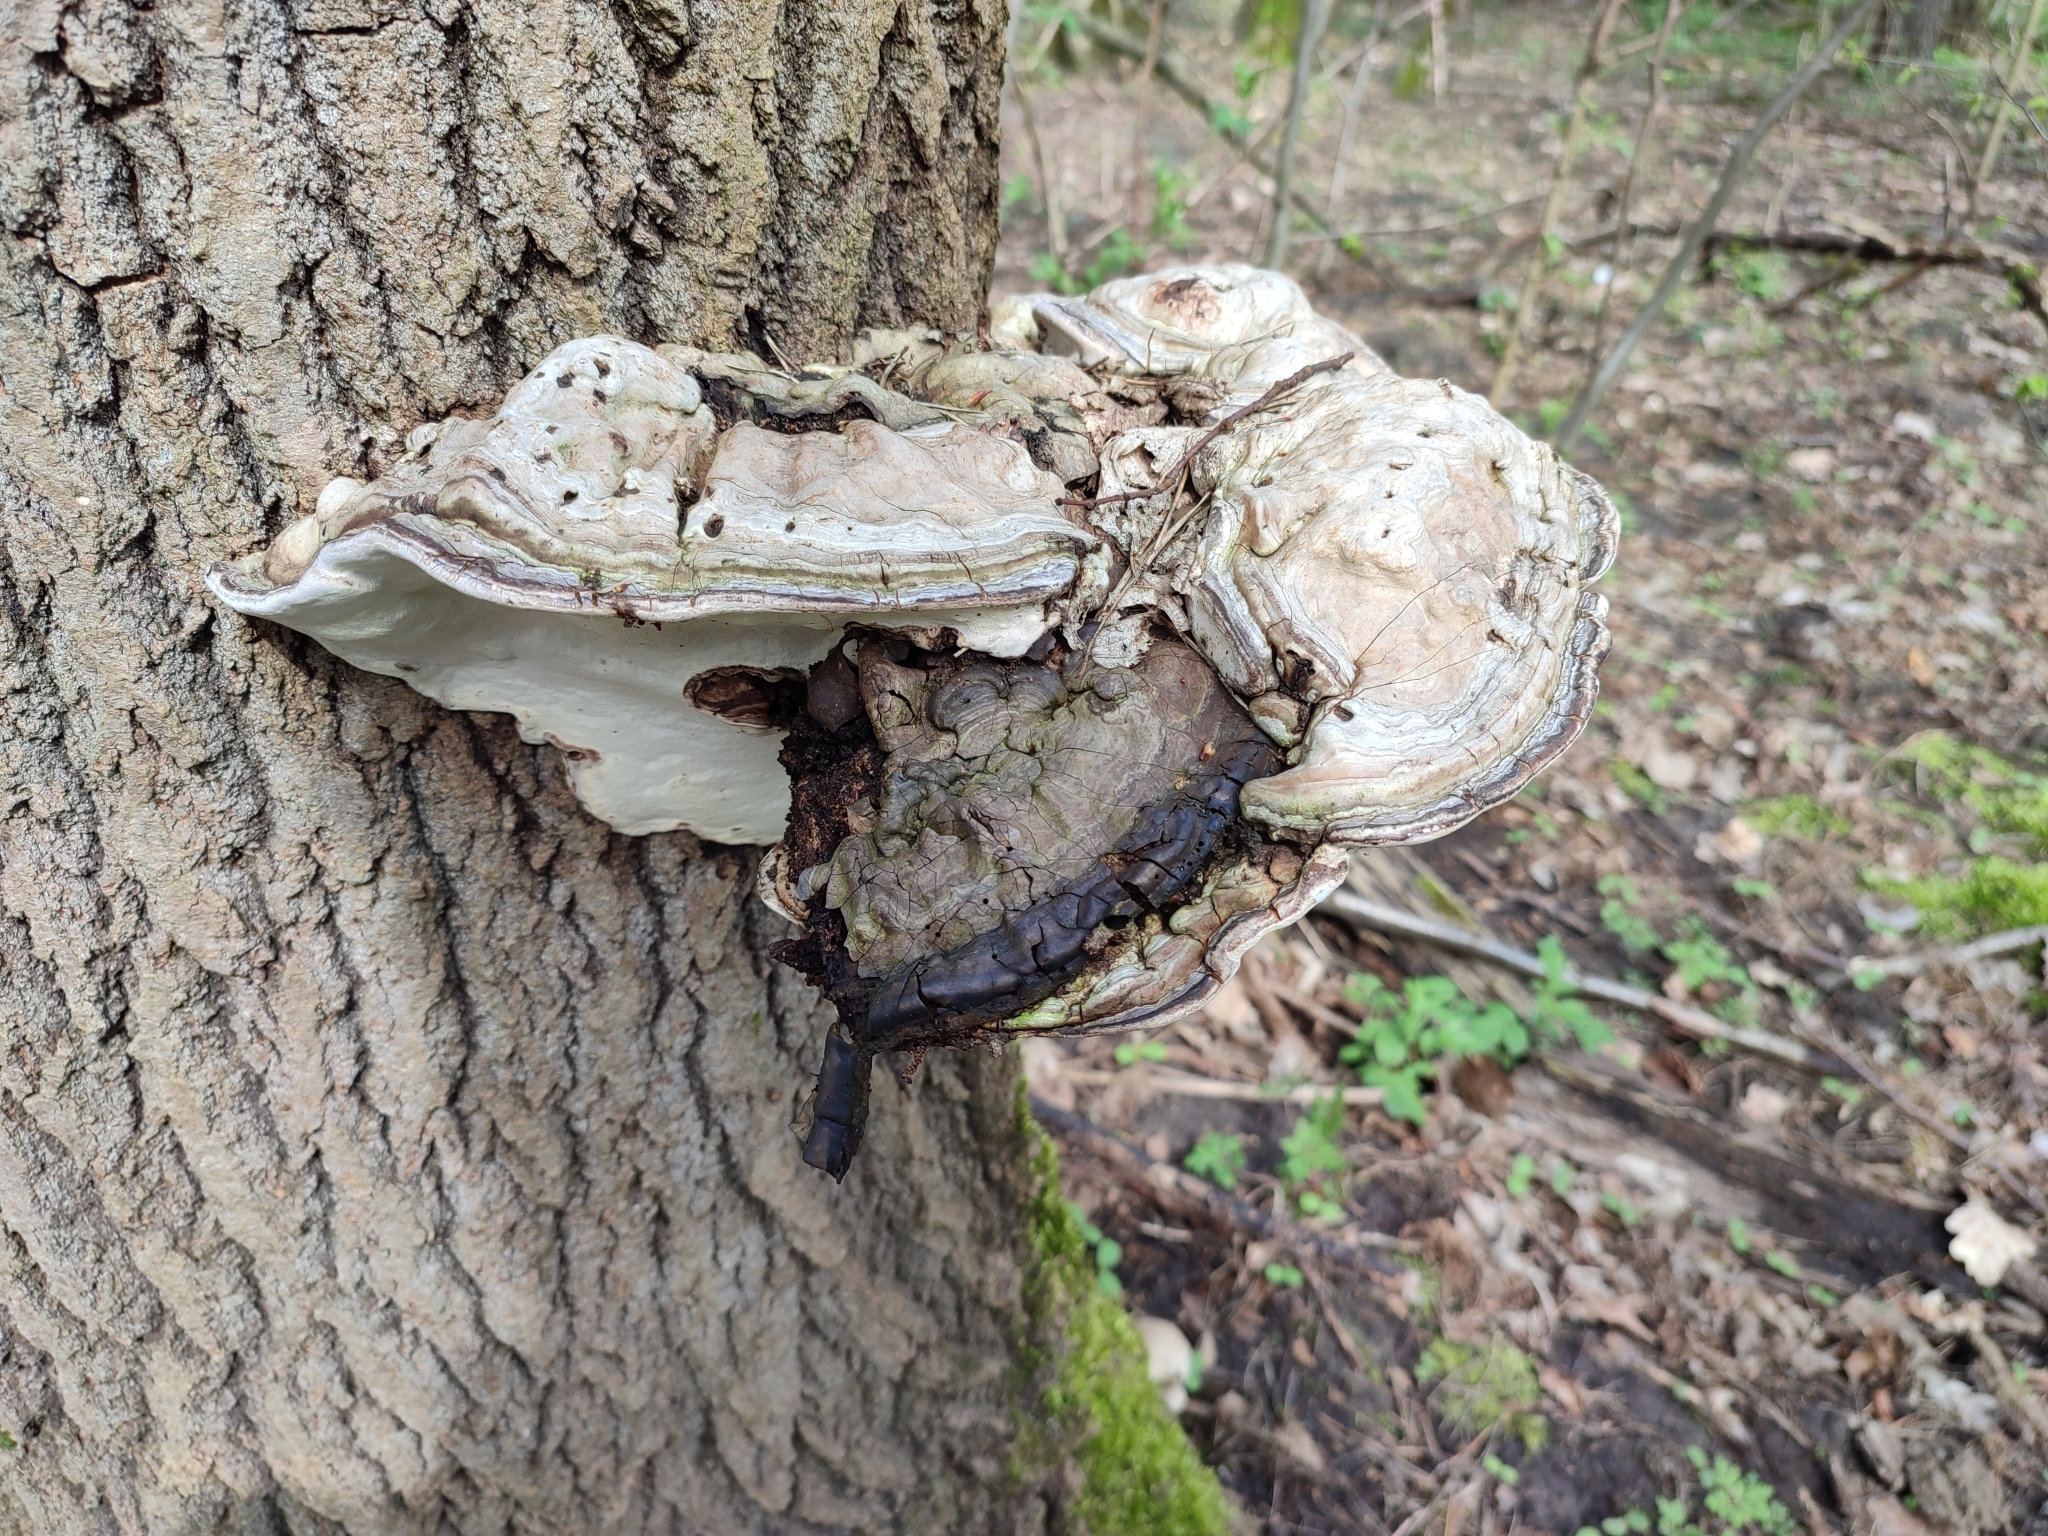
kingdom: Fungi
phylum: Basidiomycota
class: Agaricomycetes
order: Polyporales
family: Polyporaceae
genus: Fomes
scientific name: Fomes fomentarius
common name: Hoof fungus
